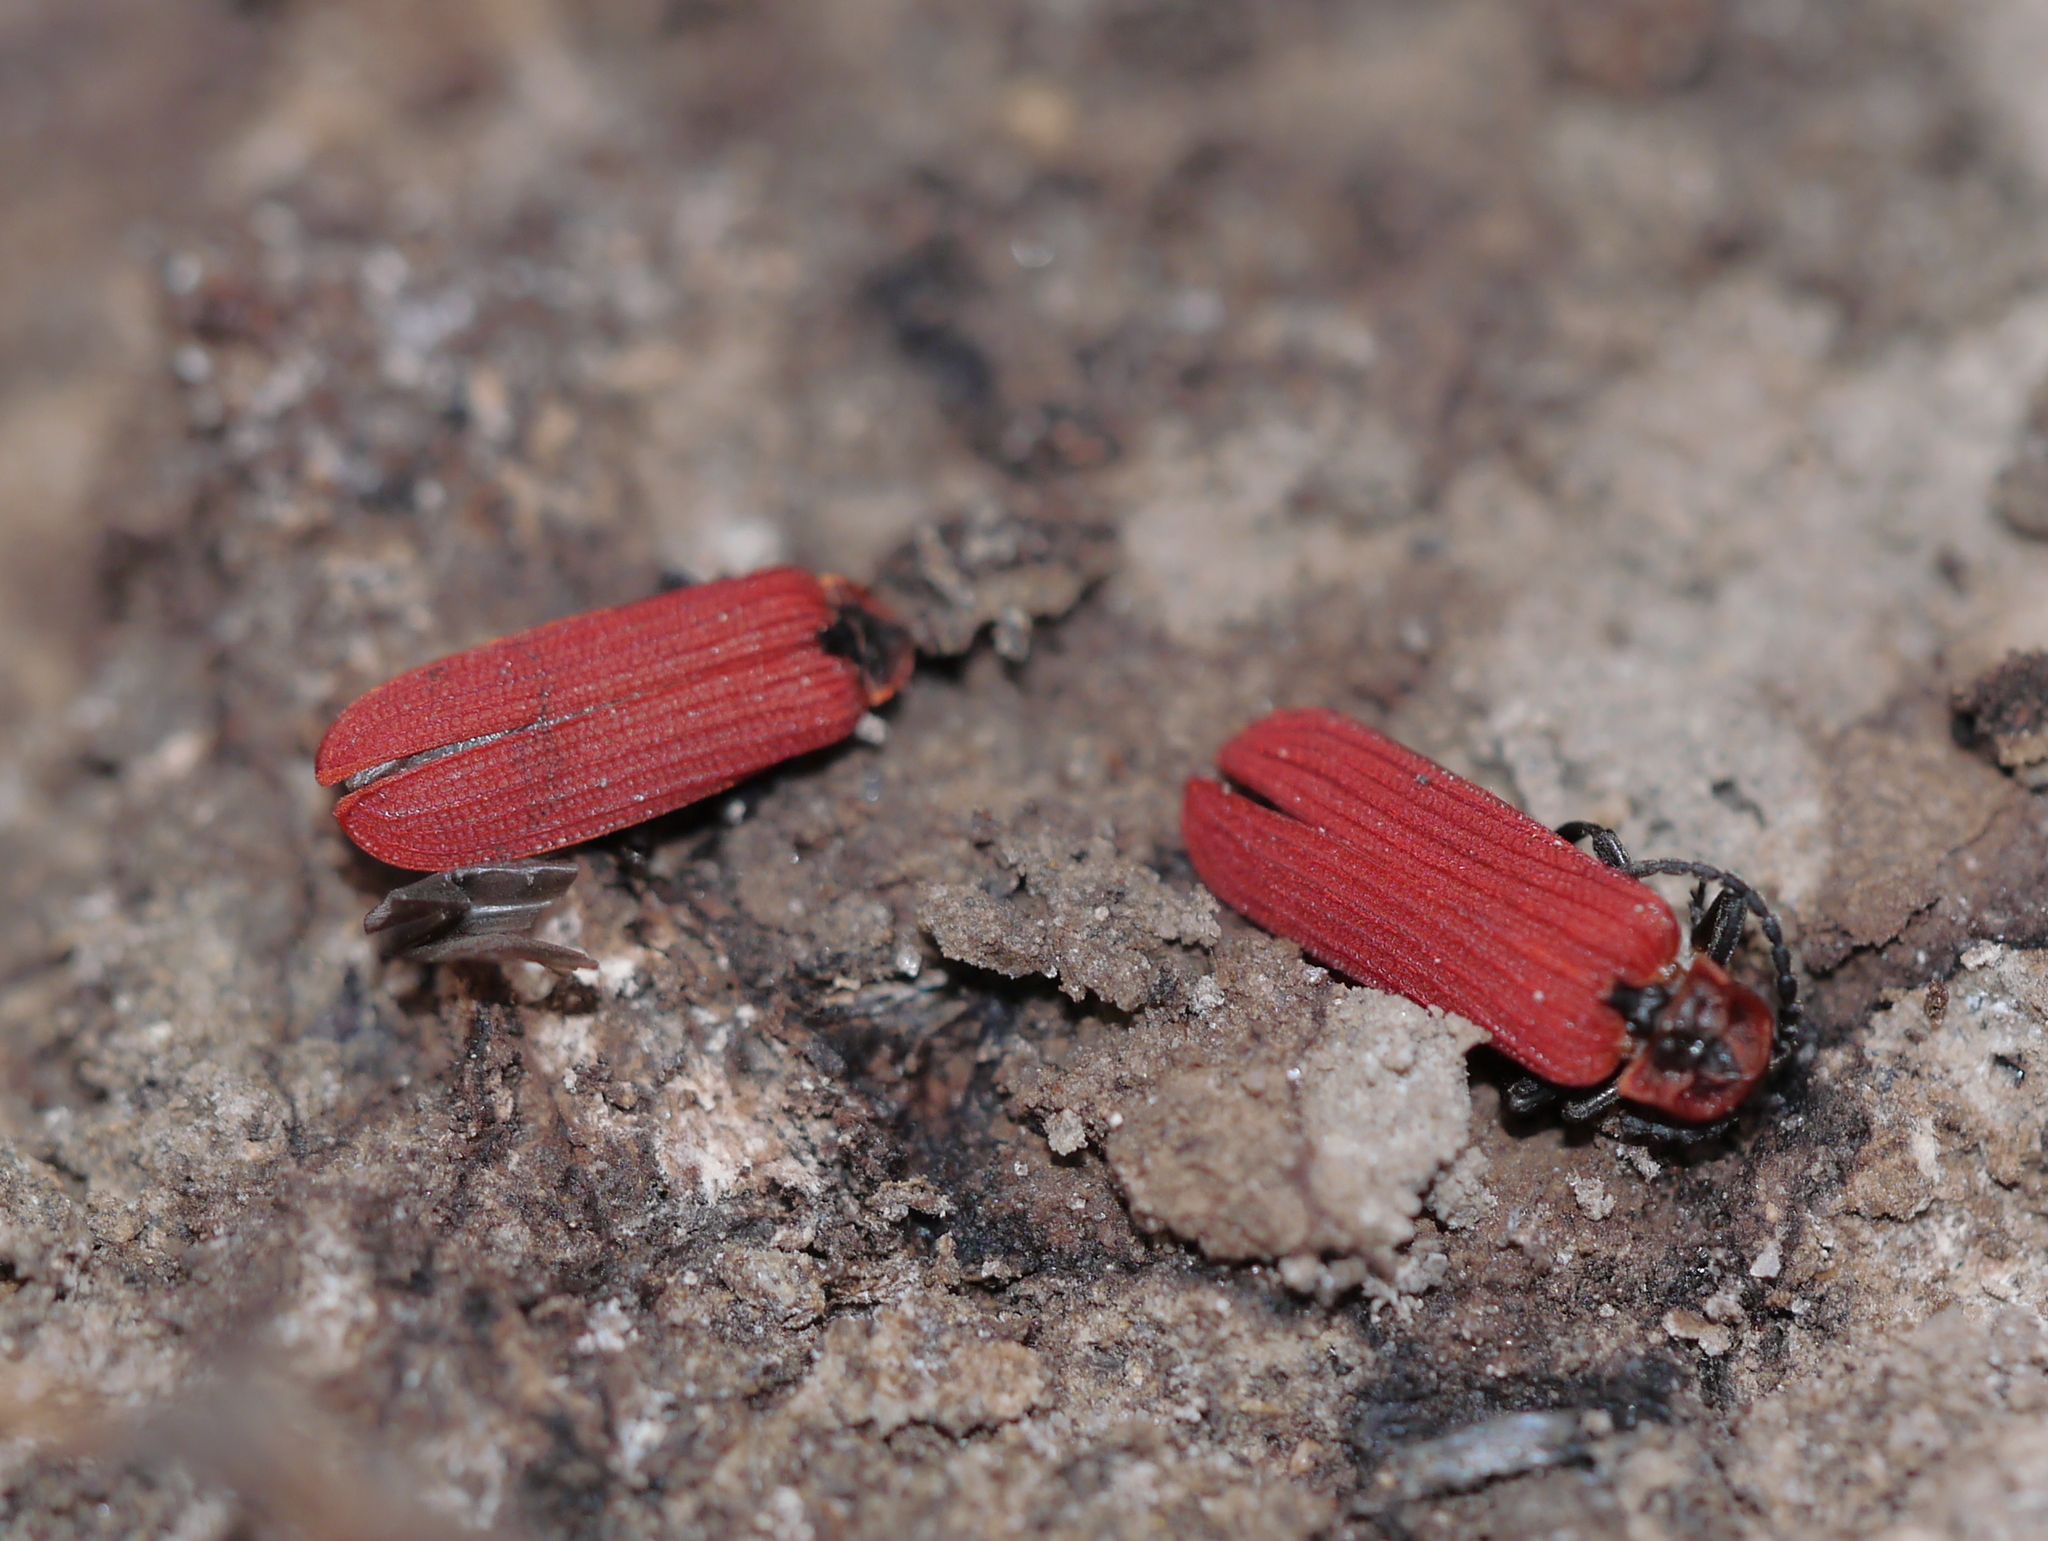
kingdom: Animalia
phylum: Arthropoda
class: Insecta
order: Coleoptera
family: Lycidae
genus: Dictyoptera
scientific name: Dictyoptera aurora
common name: Golden net-winged beetle
